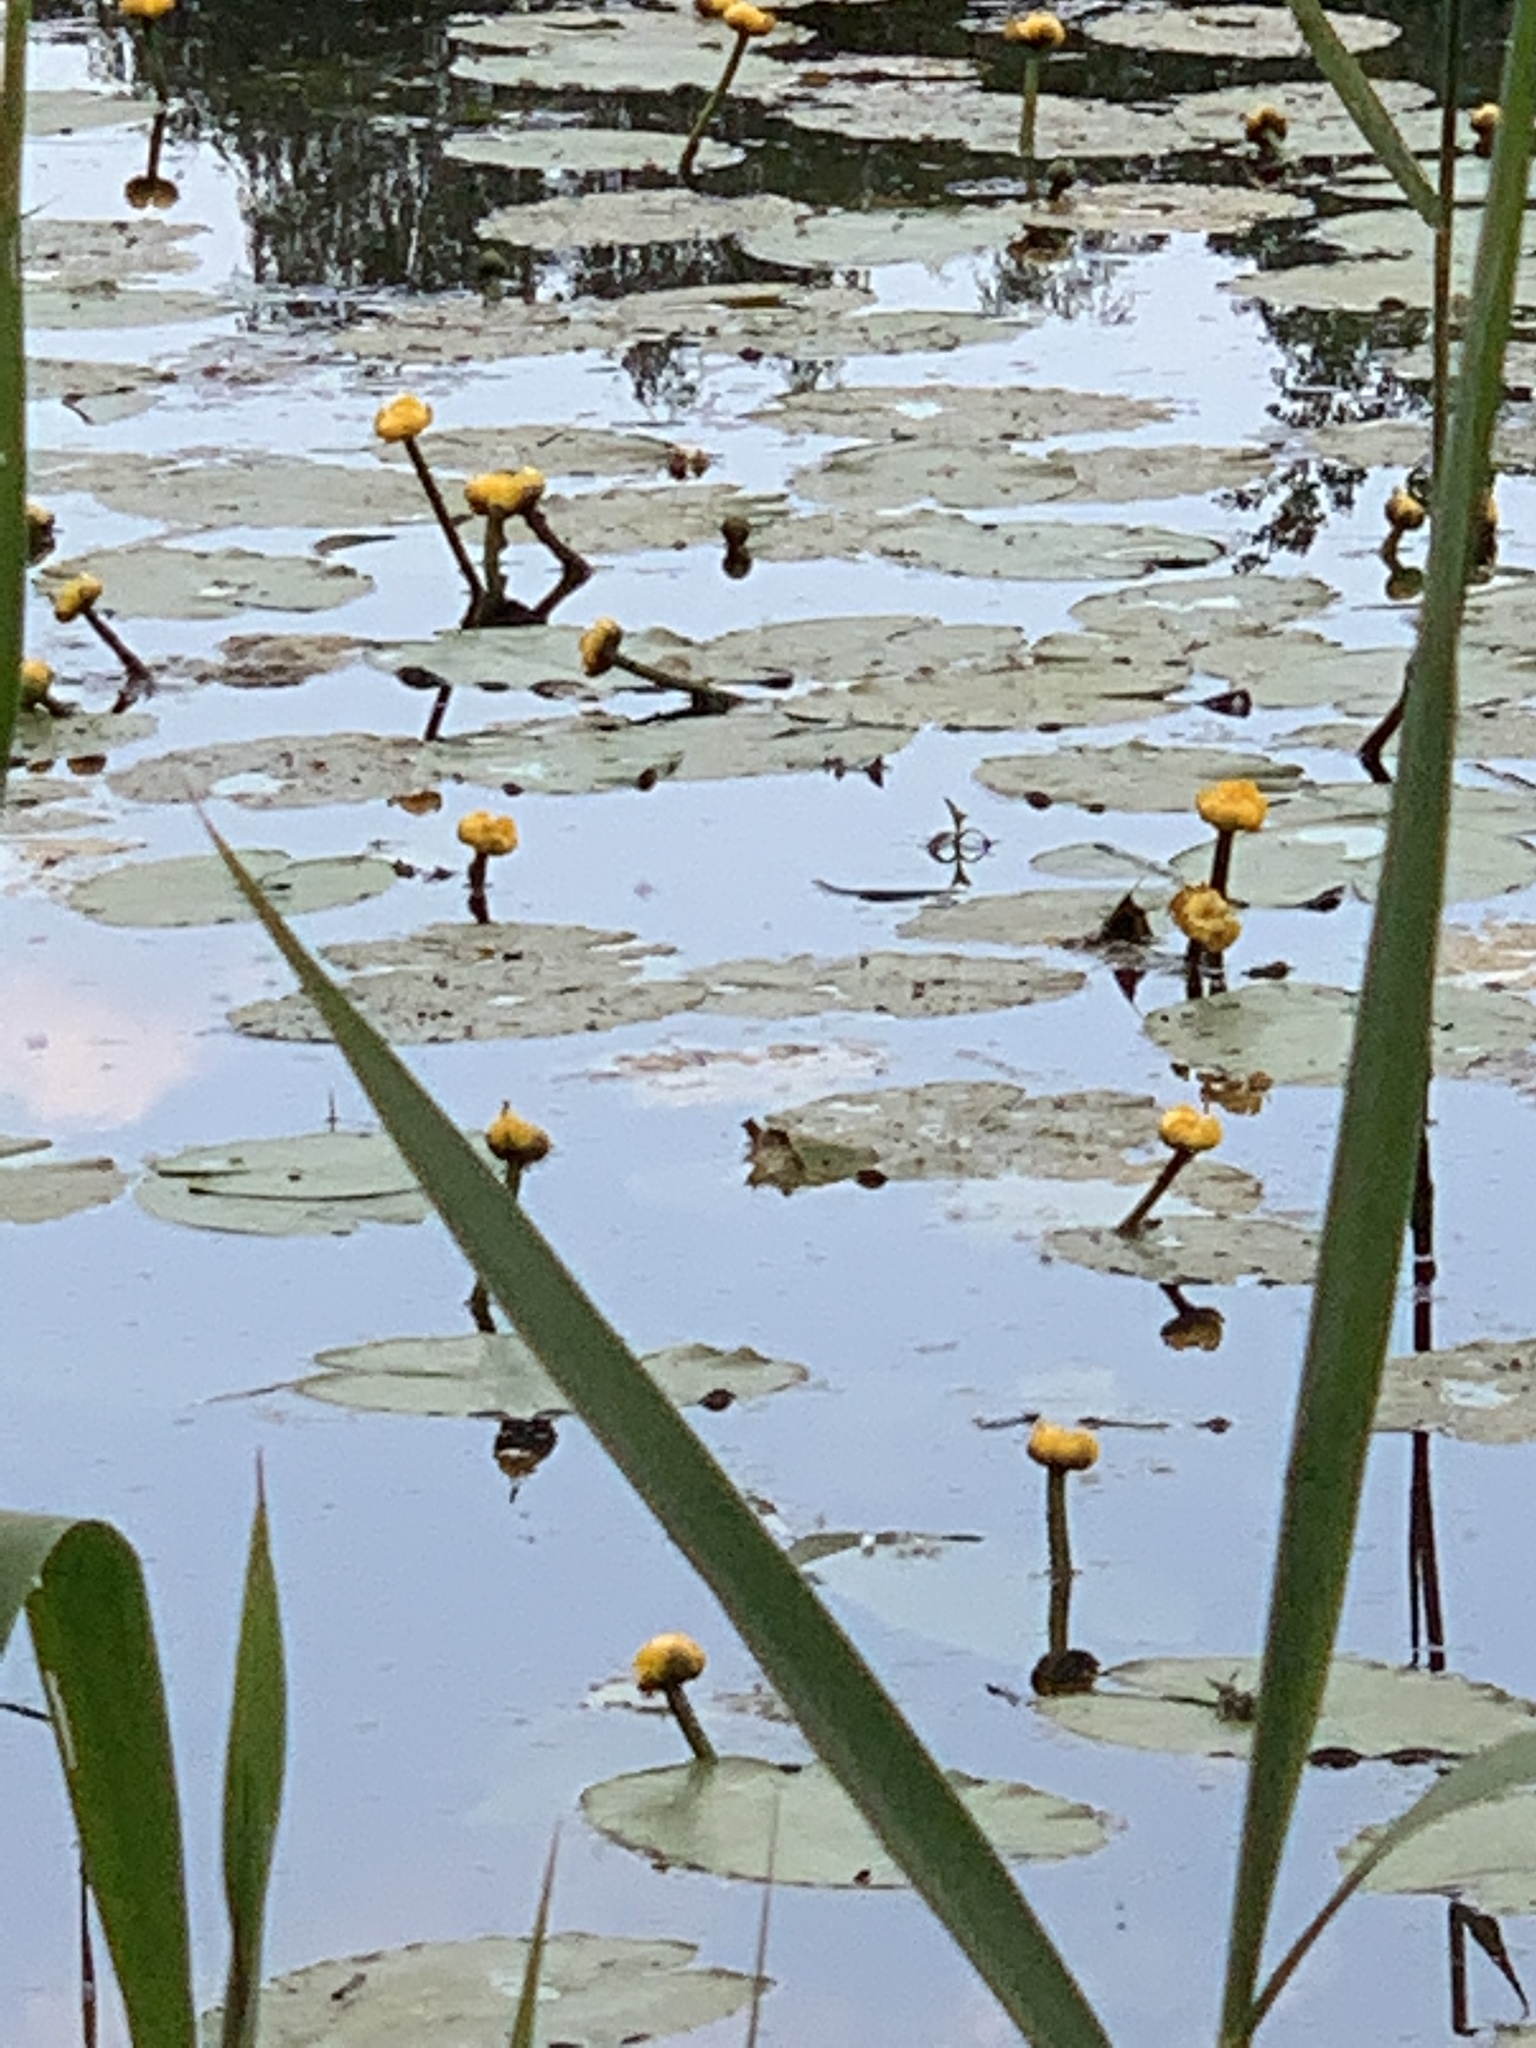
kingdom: Plantae
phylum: Tracheophyta
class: Magnoliopsida
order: Nymphaeales
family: Nymphaeaceae
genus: Nuphar
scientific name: Nuphar lutea
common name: Yellow water-lily
